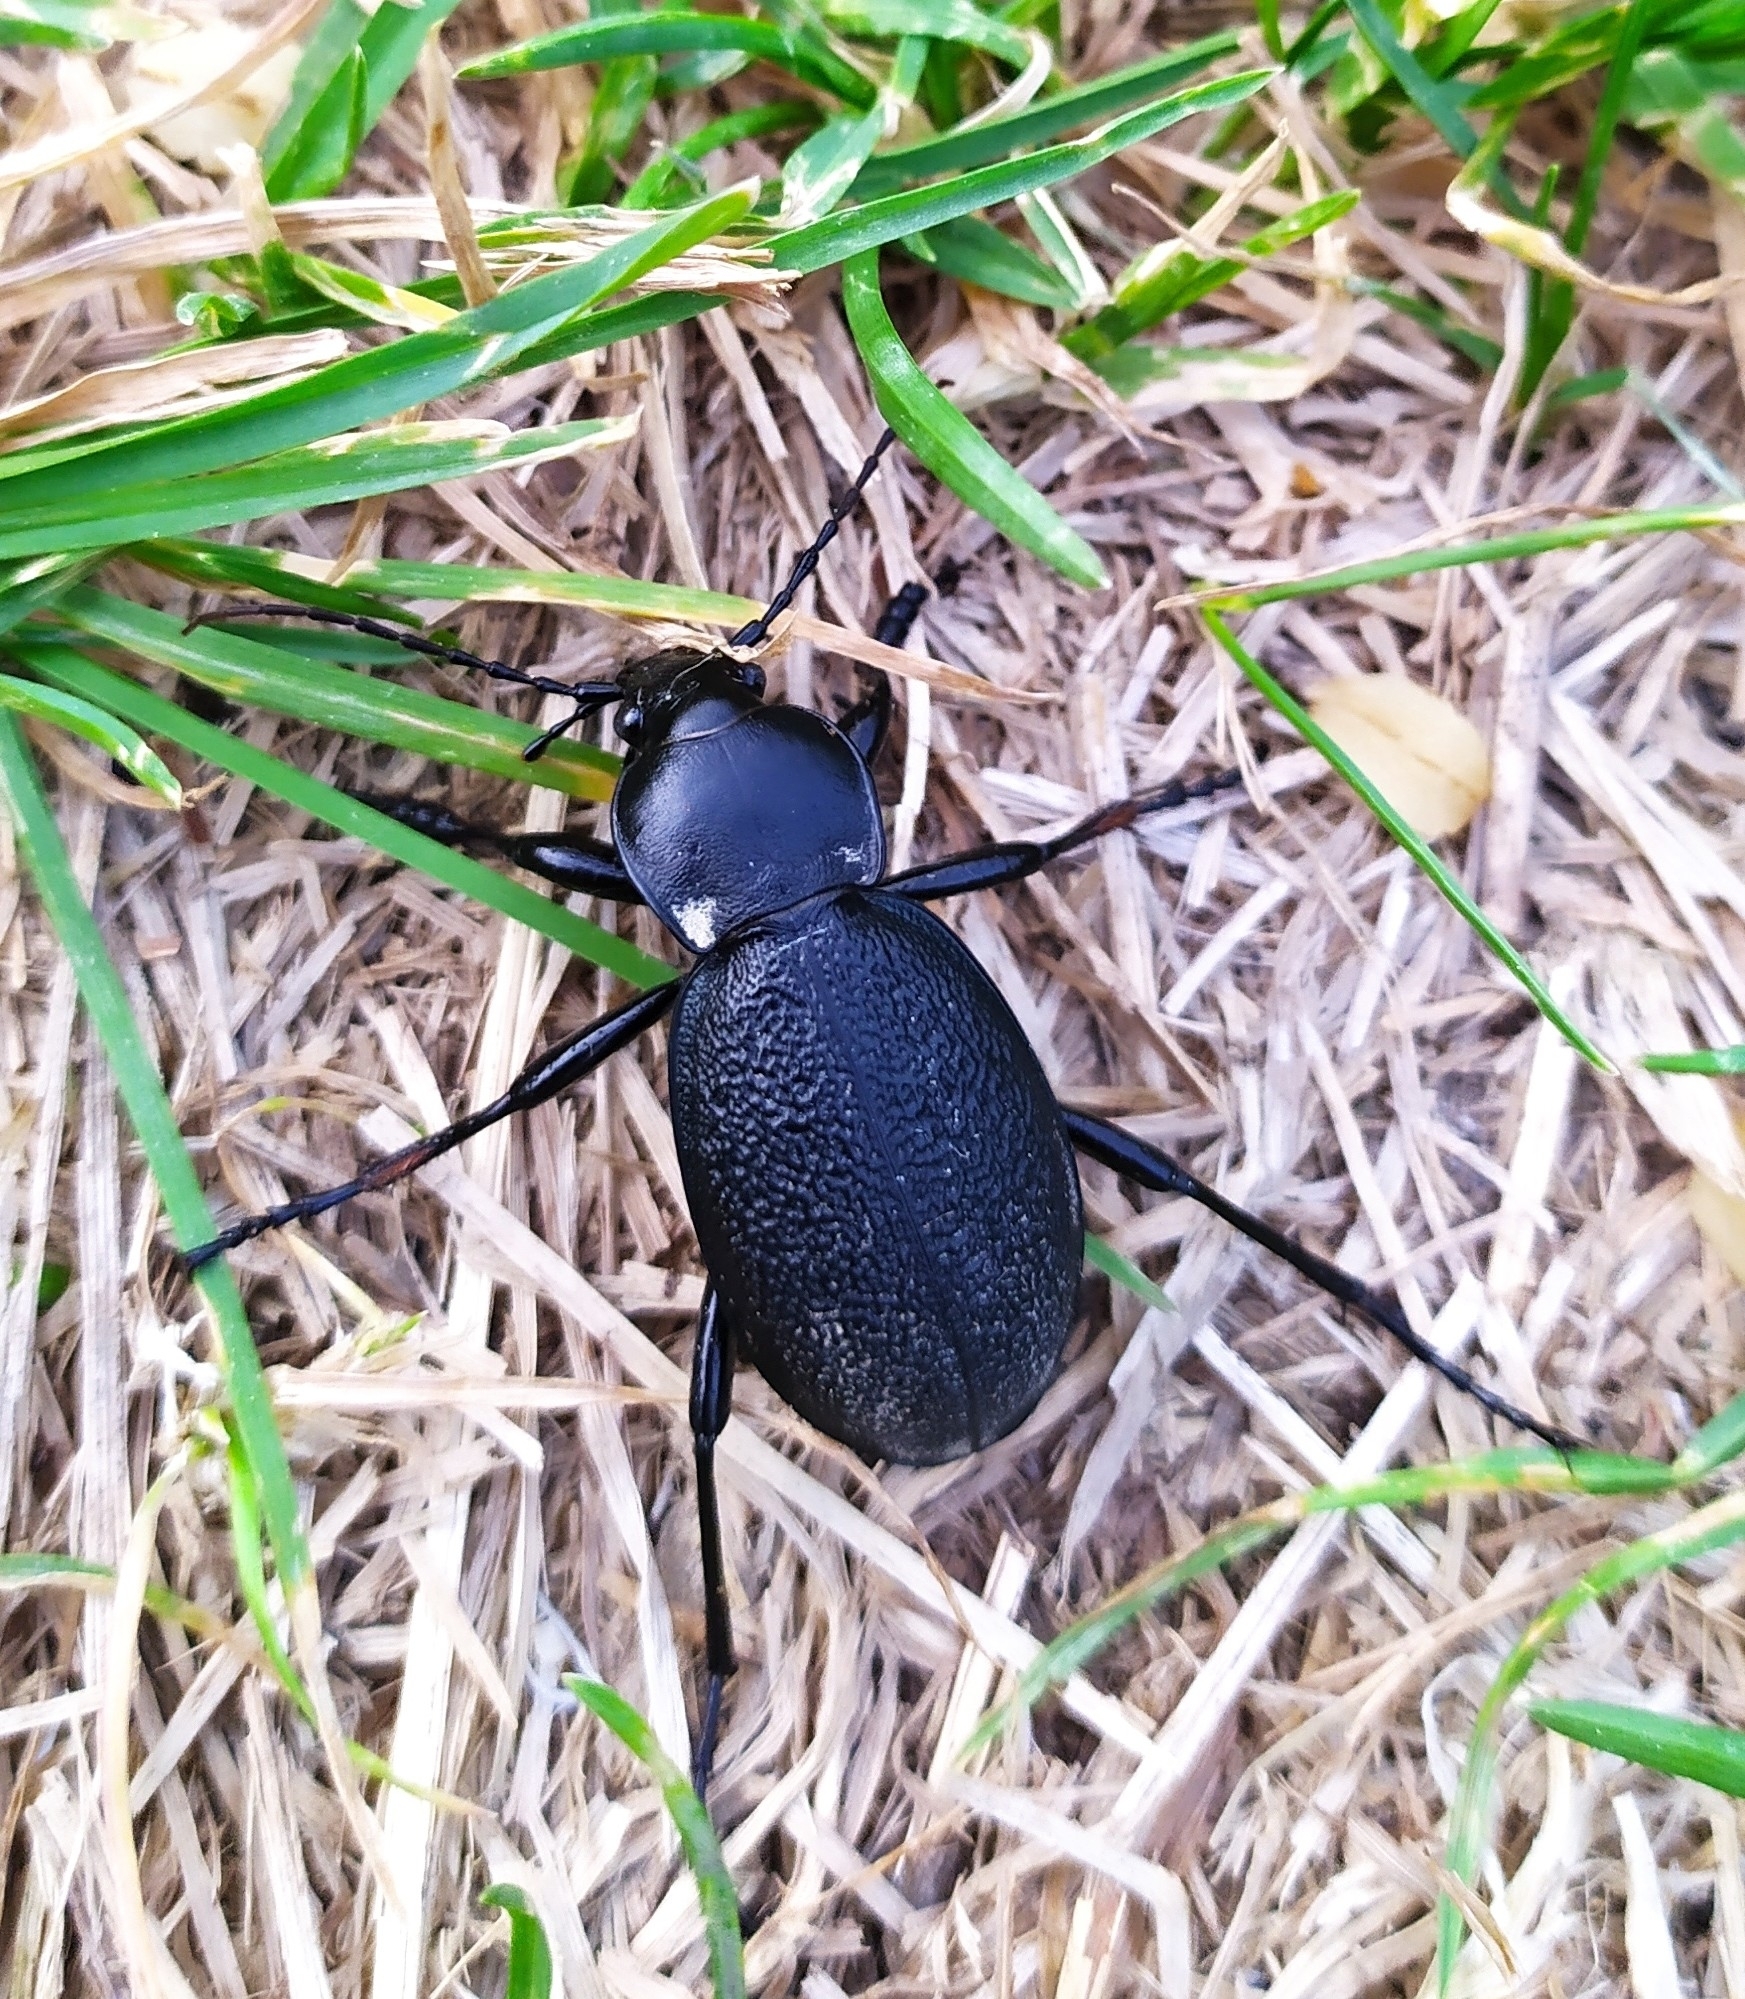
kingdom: Animalia
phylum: Arthropoda
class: Insecta
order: Coleoptera
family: Carabidae
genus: Carabus
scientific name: Carabus coriaceus
